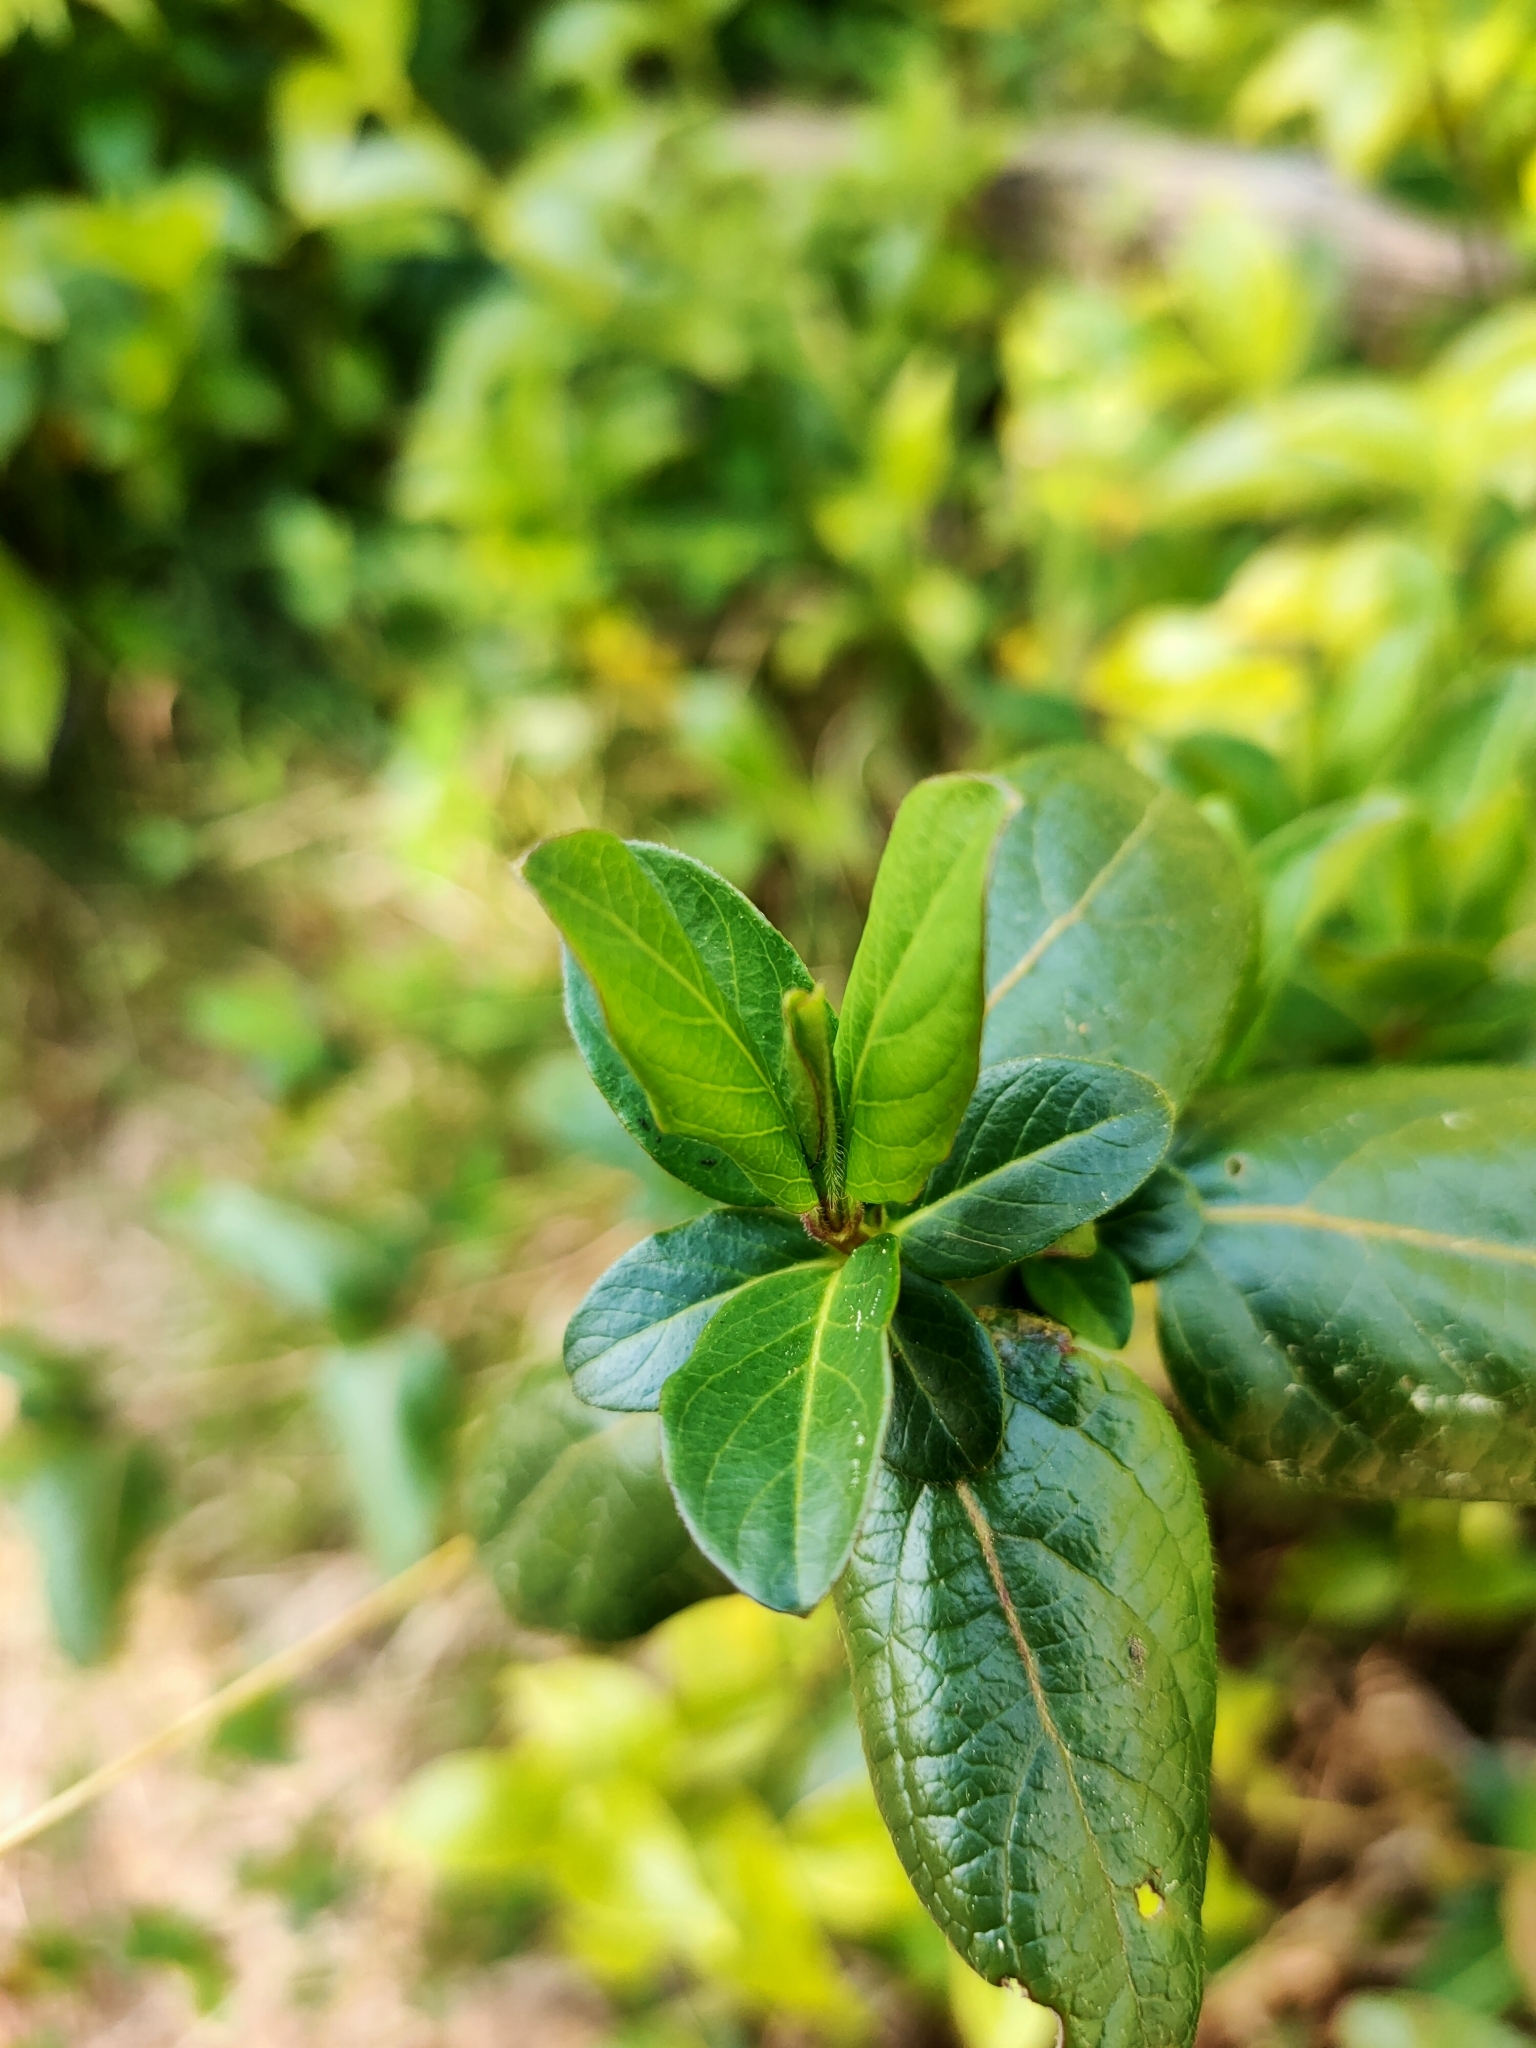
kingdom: Plantae
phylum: Tracheophyta
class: Magnoliopsida
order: Dipsacales
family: Caprifoliaceae
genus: Lonicera
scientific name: Lonicera japonica
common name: Japanese honeysuckle
